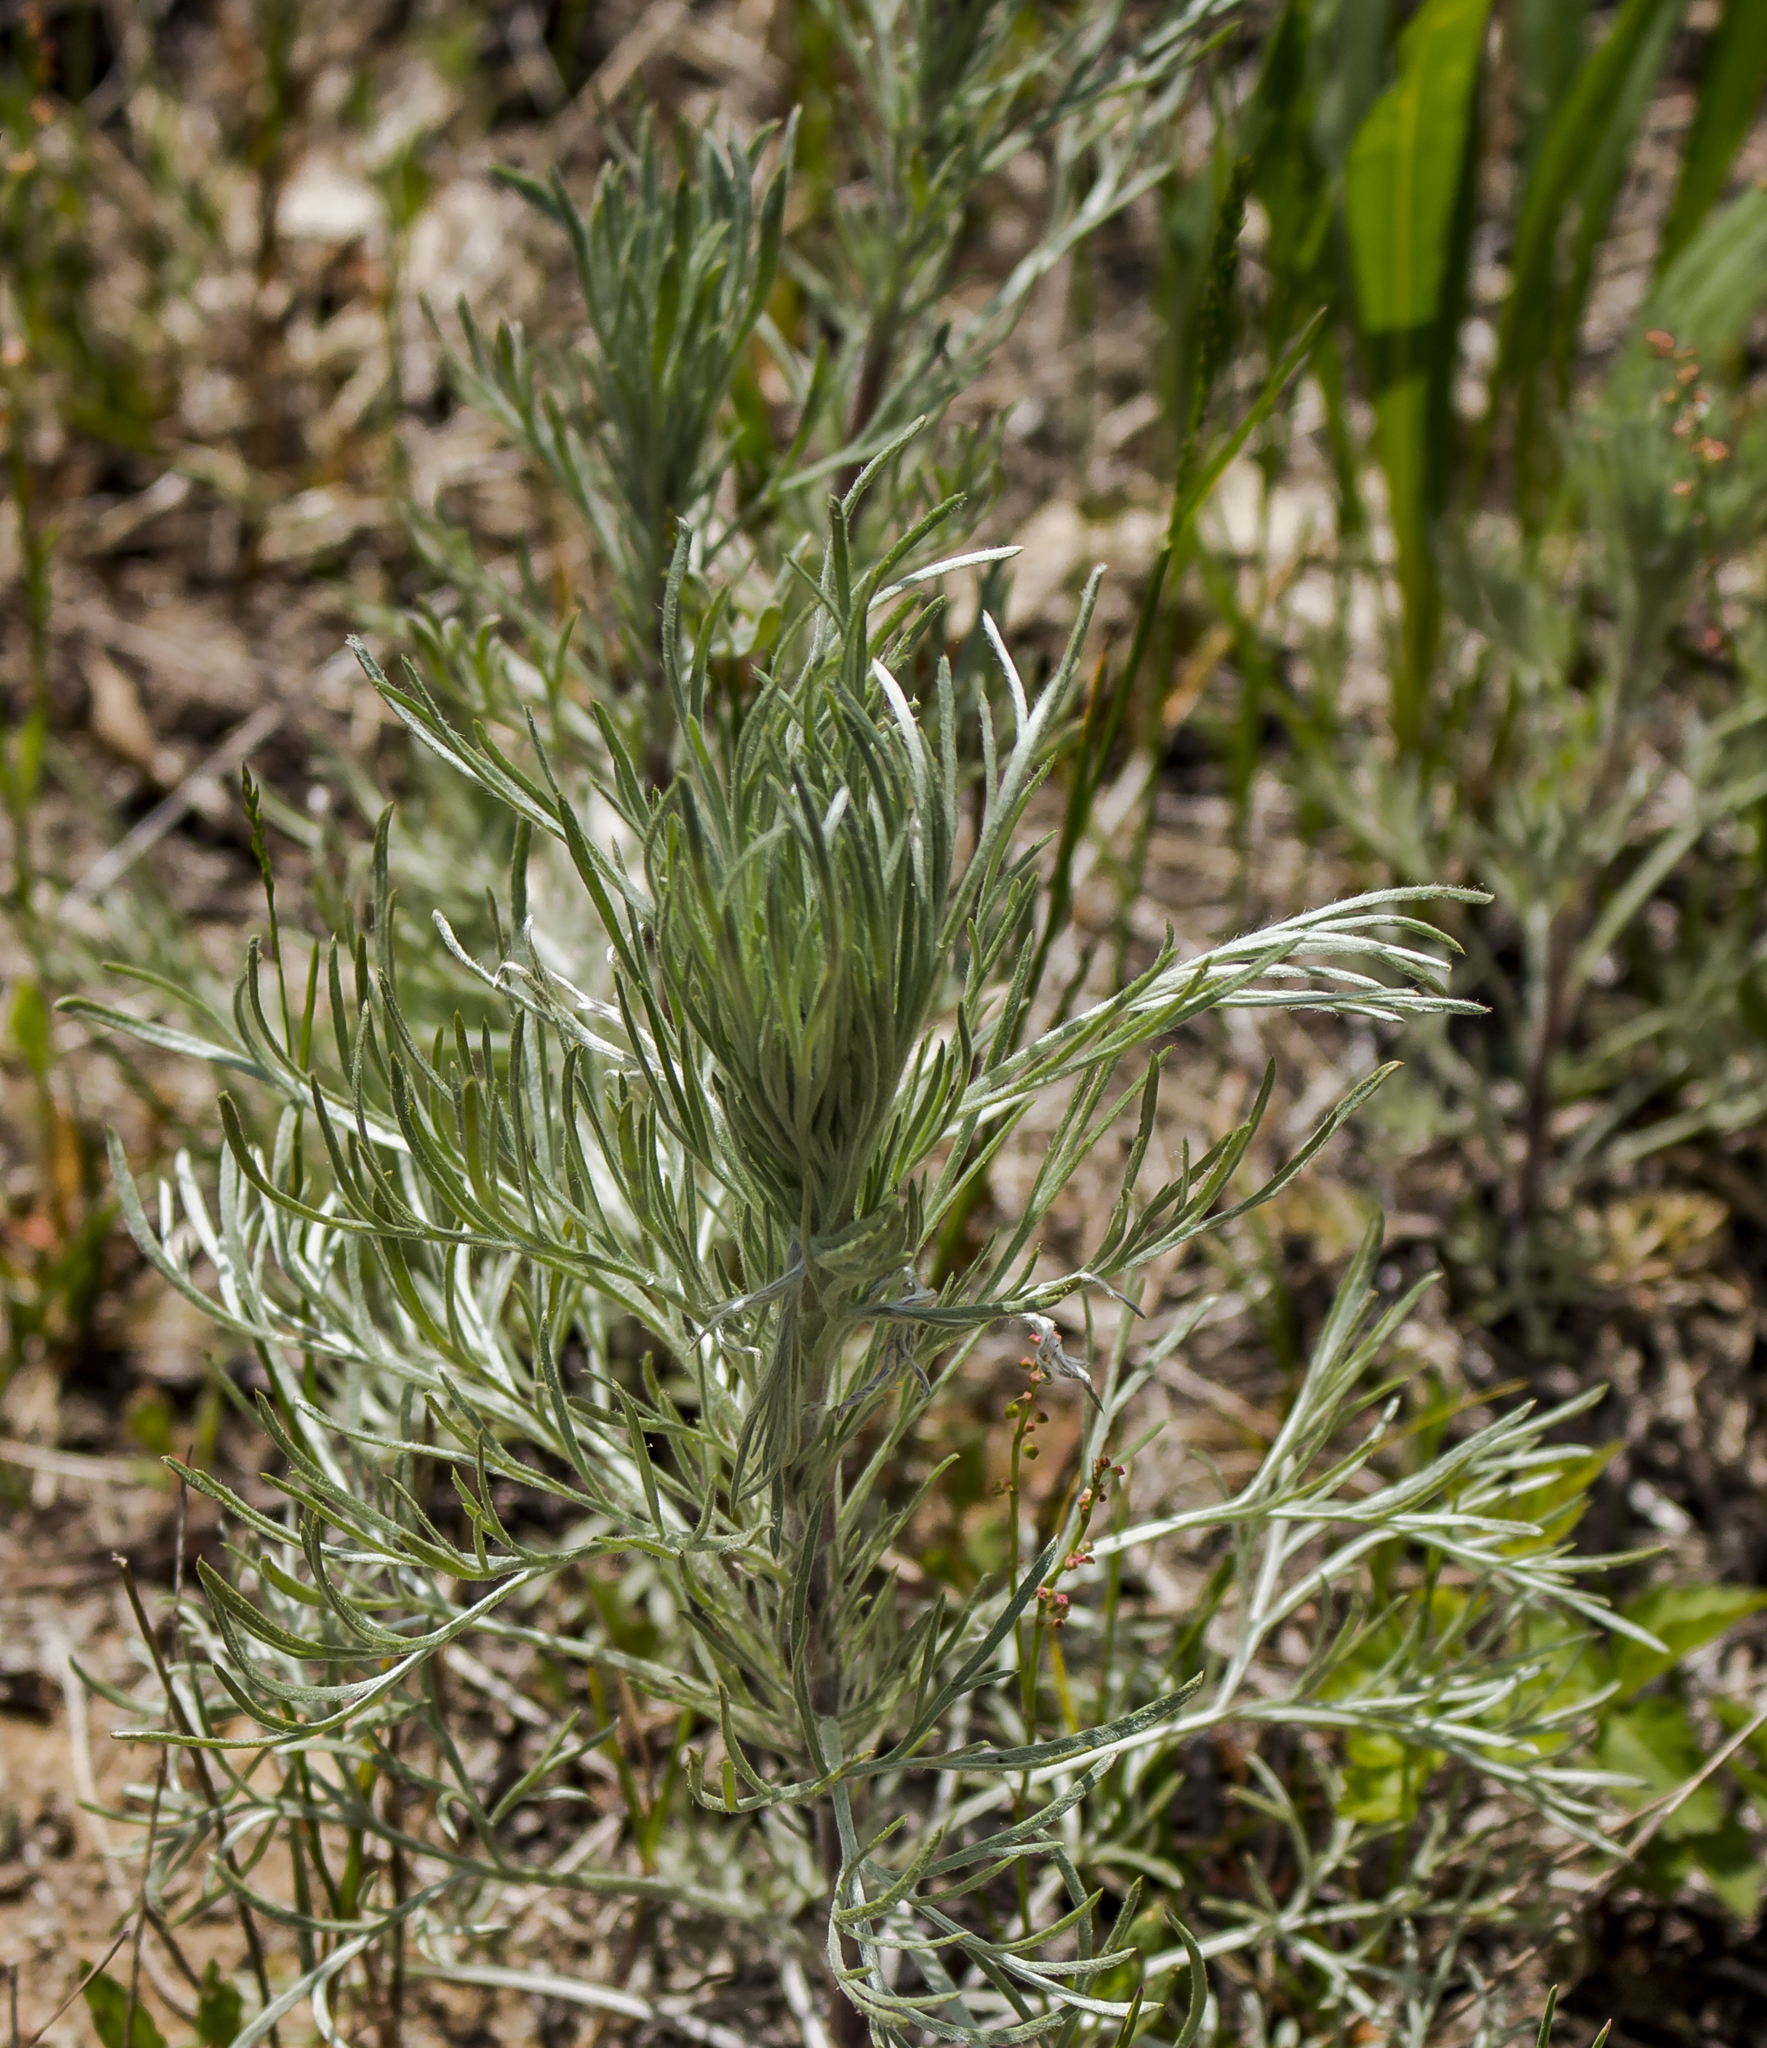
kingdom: Plantae
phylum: Tracheophyta
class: Magnoliopsida
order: Asterales
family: Asteraceae
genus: Artemisia
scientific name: Artemisia campestris
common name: Field wormwood
